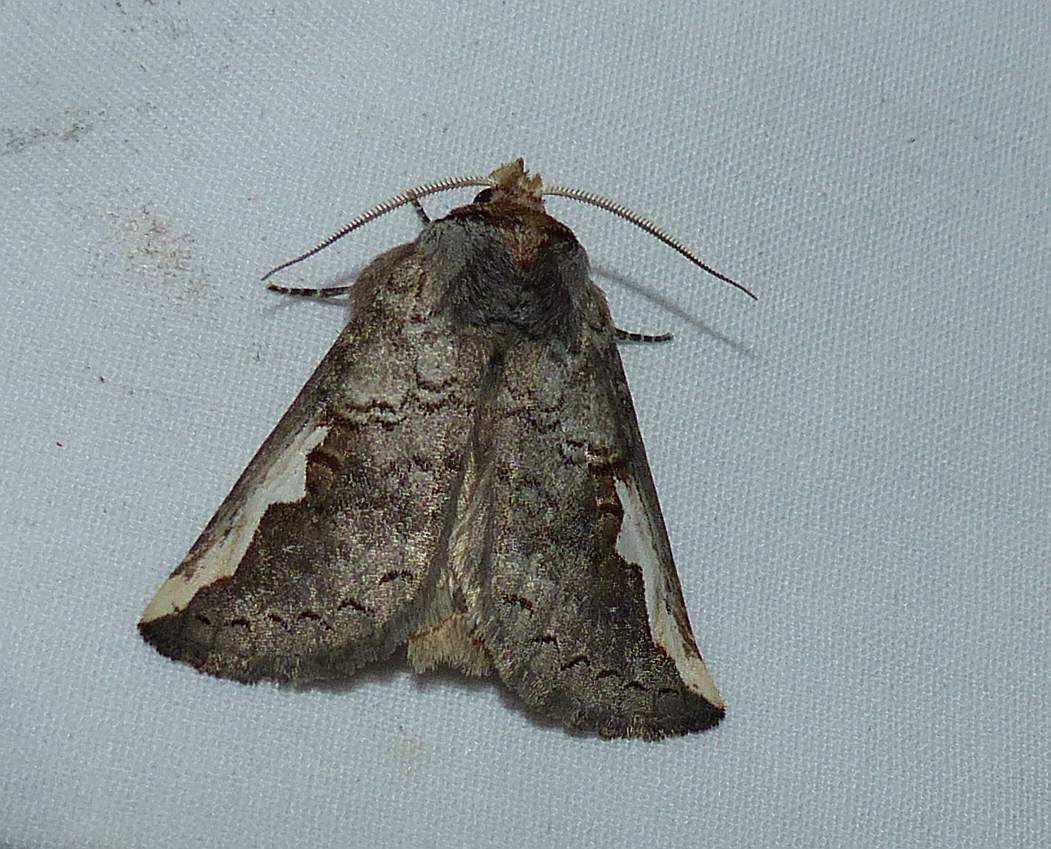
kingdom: Animalia
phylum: Arthropoda
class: Insecta
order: Lepidoptera
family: Notodontidae
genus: Symmerista
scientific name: Symmerista leucitys
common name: Orange-humped mapleworm
